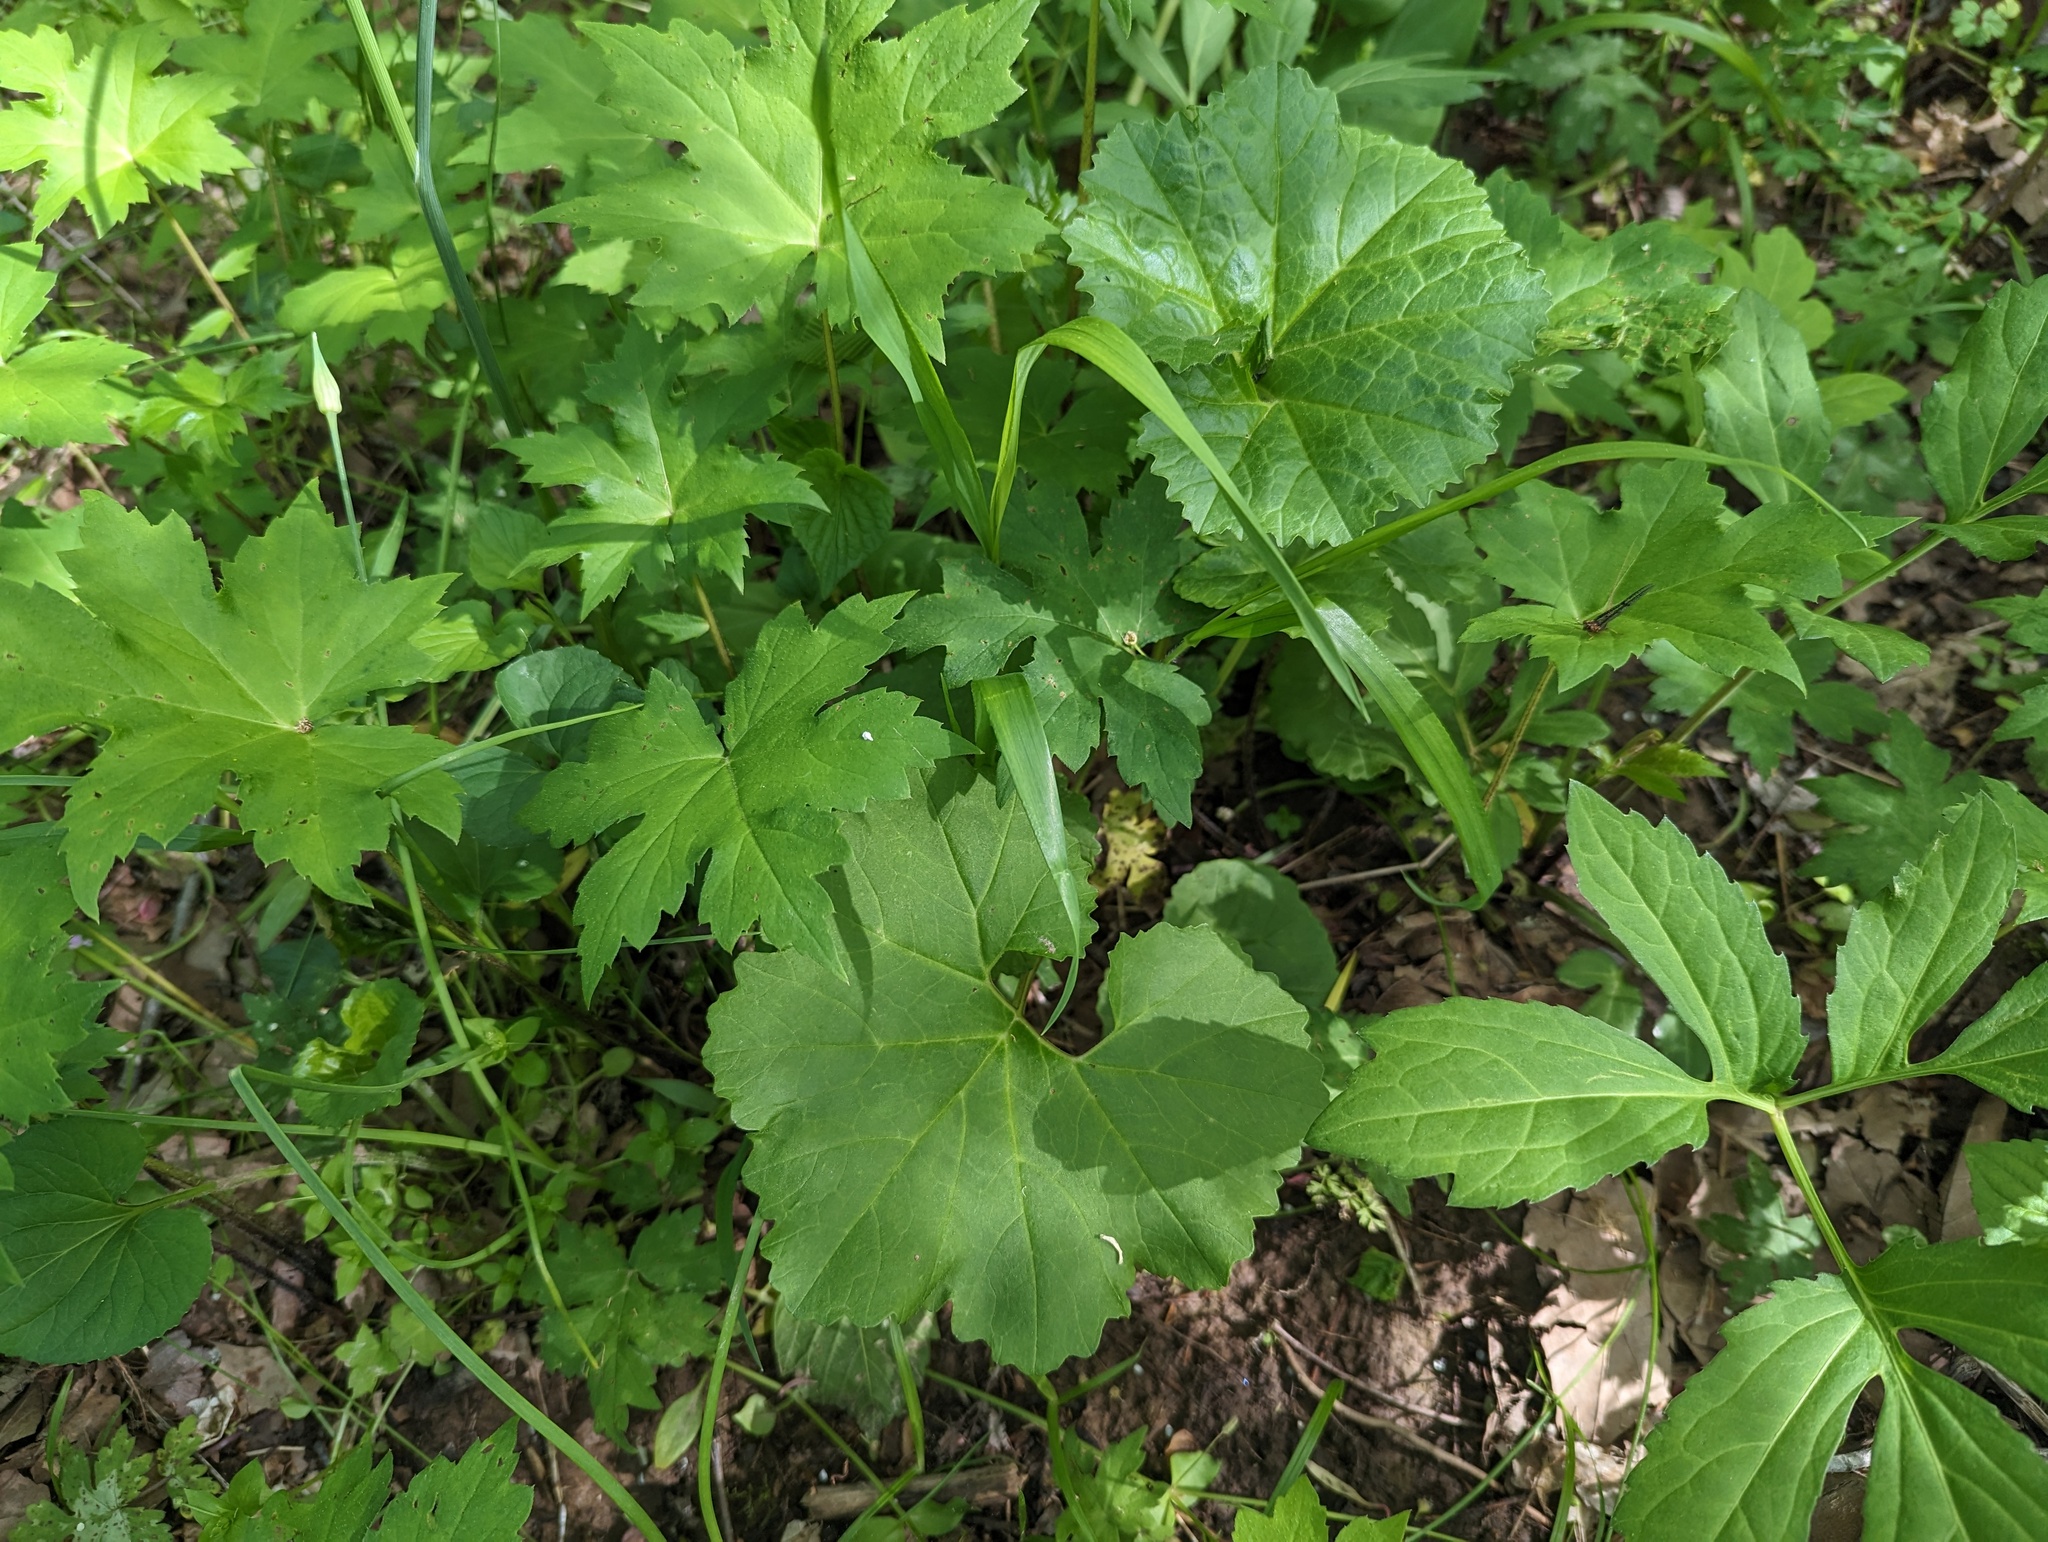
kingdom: Plantae
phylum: Tracheophyta
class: Magnoliopsida
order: Asterales
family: Asteraceae
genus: Arnoglossum
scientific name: Arnoglossum reniforme
